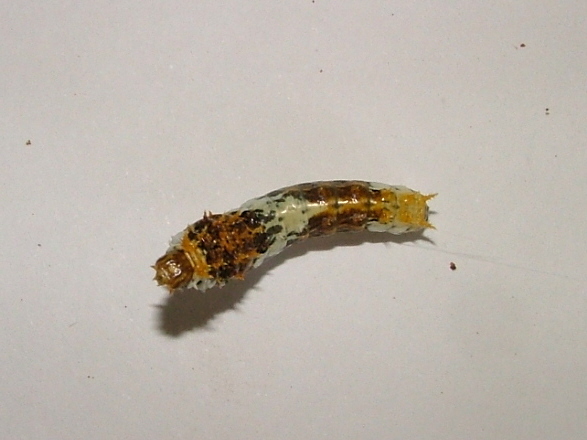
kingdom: Animalia
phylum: Arthropoda
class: Insecta
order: Lepidoptera
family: Papilionidae
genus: Papilio
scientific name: Papilio demodocus
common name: Christmas butterfly
